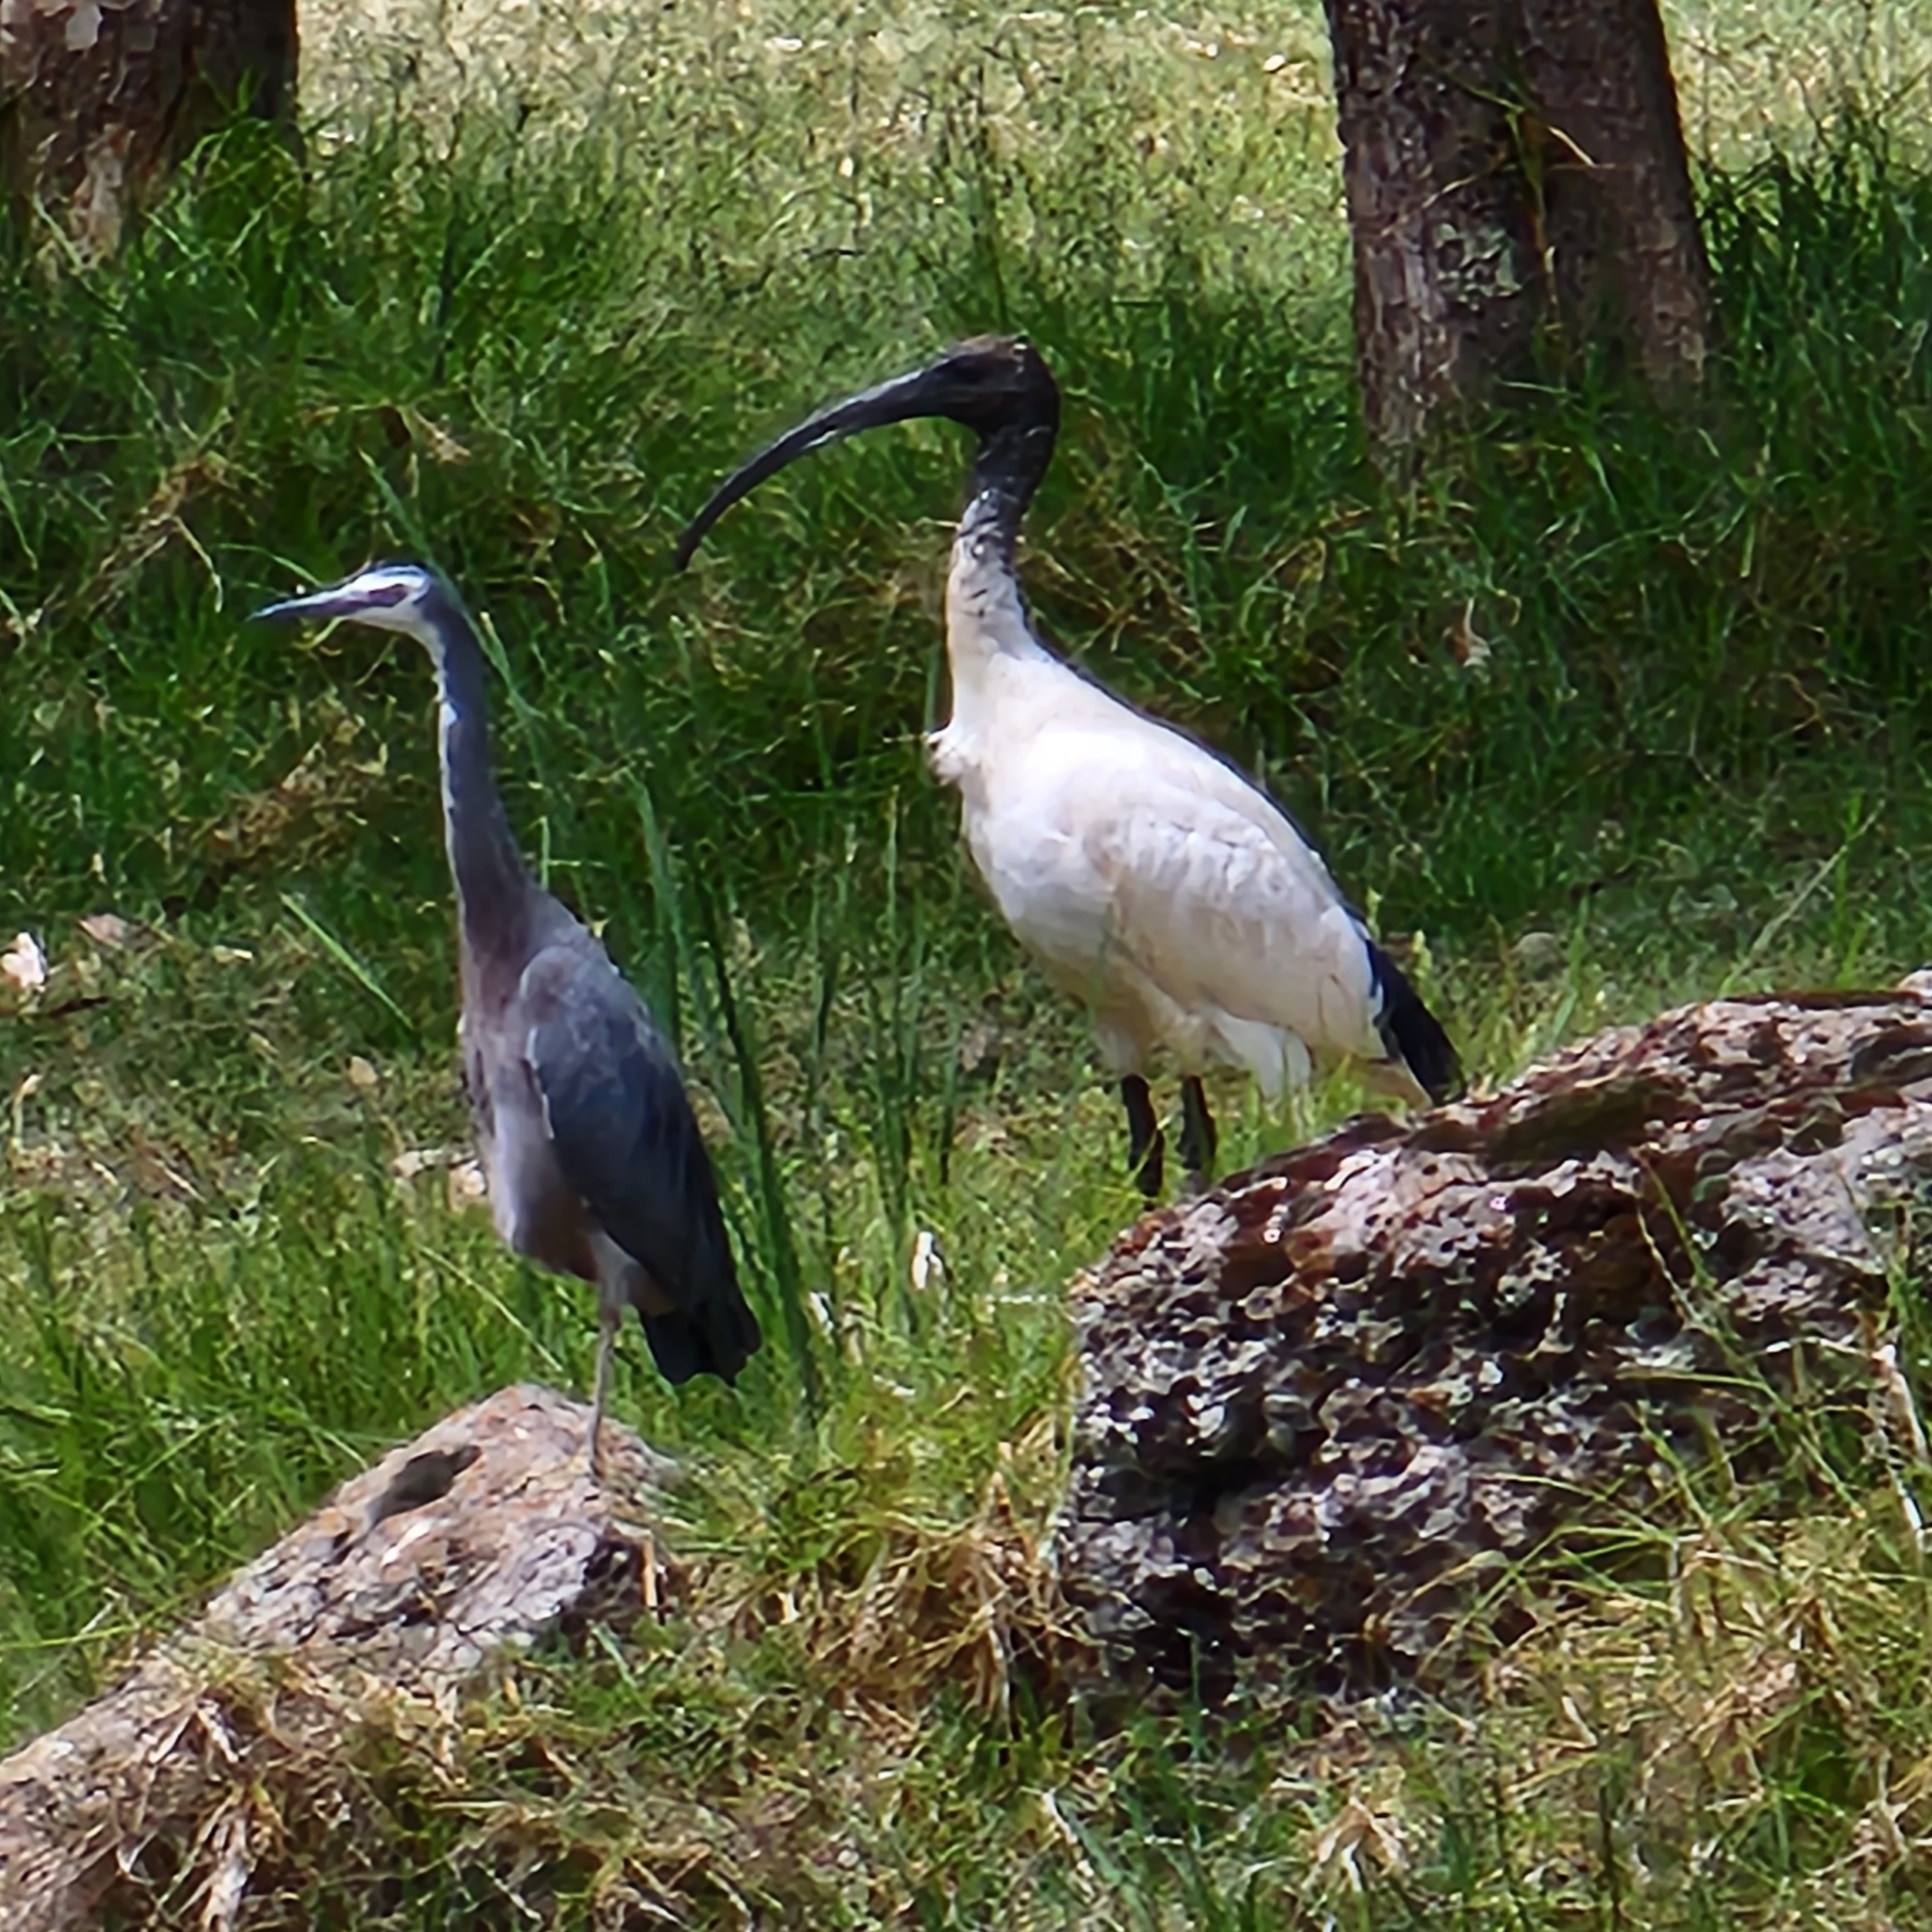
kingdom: Animalia
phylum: Chordata
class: Aves
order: Pelecaniformes
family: Threskiornithidae
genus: Threskiornis
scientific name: Threskiornis molucca
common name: Australian white ibis
